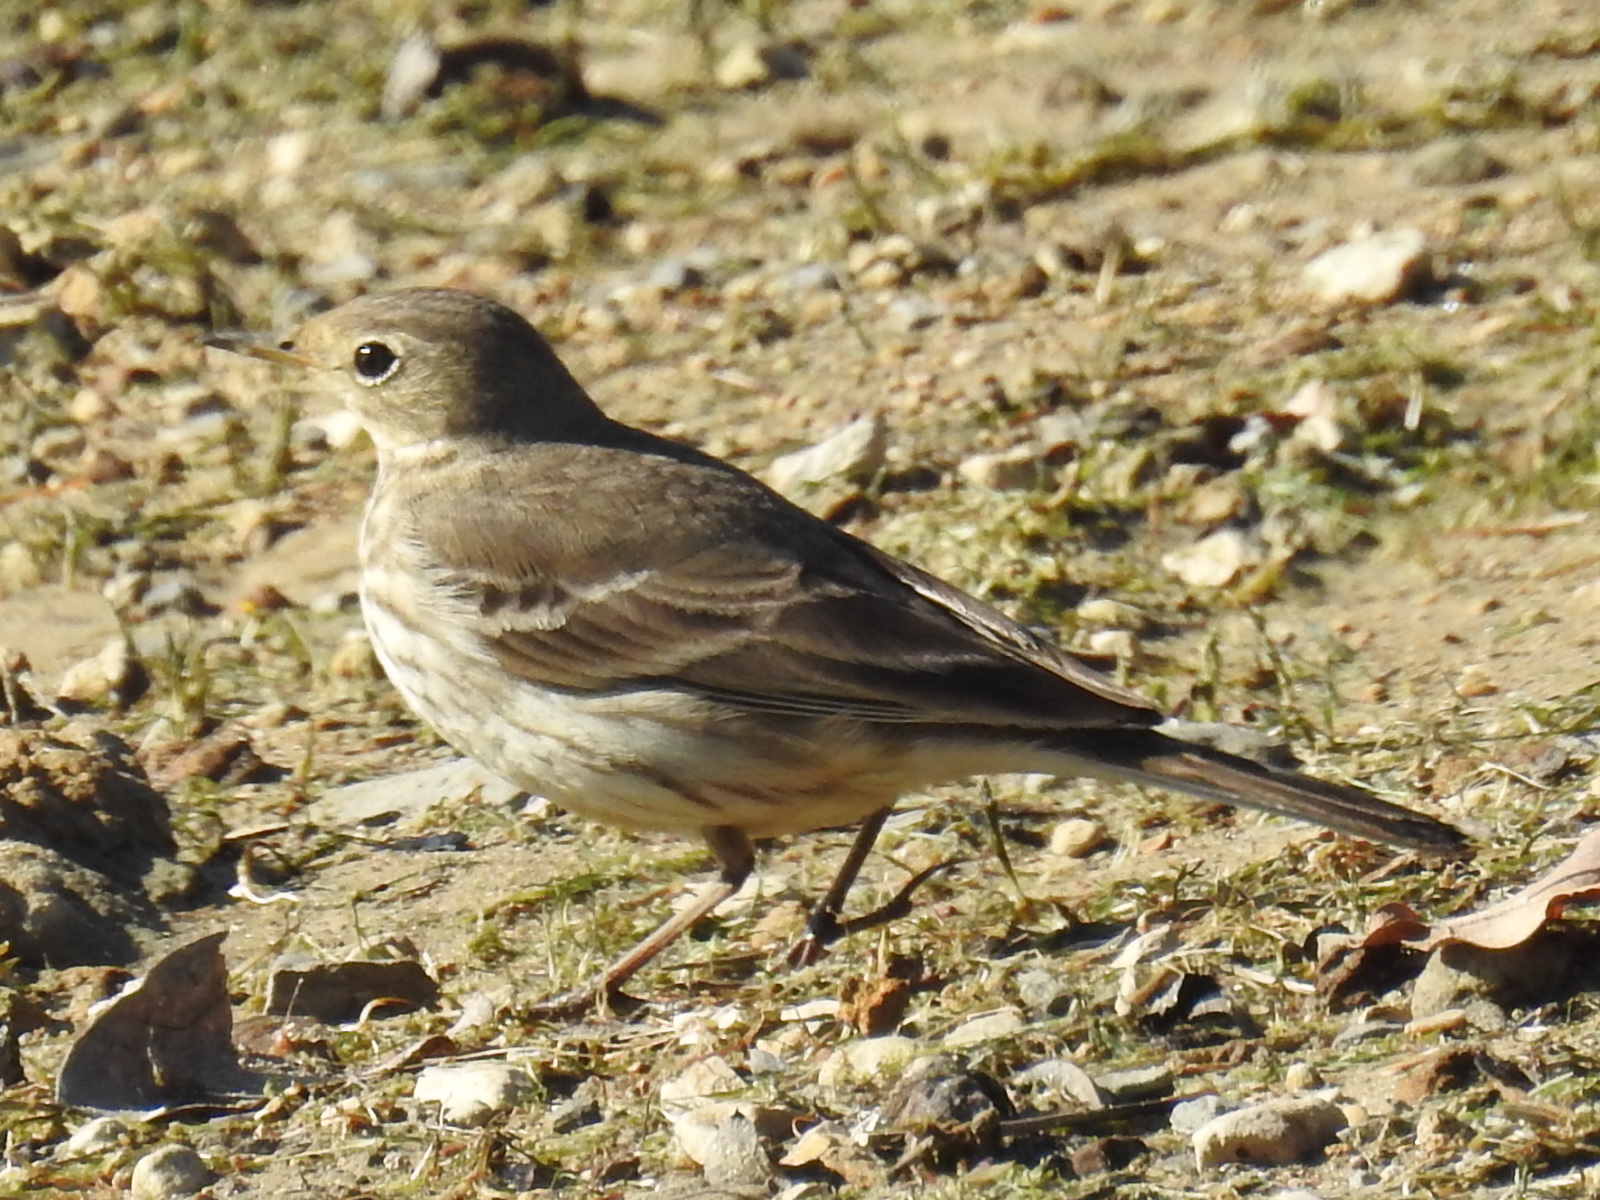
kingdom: Animalia
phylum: Chordata
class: Aves
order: Passeriformes
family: Motacillidae
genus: Anthus
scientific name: Anthus rubescens
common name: Buff-bellied pipit
